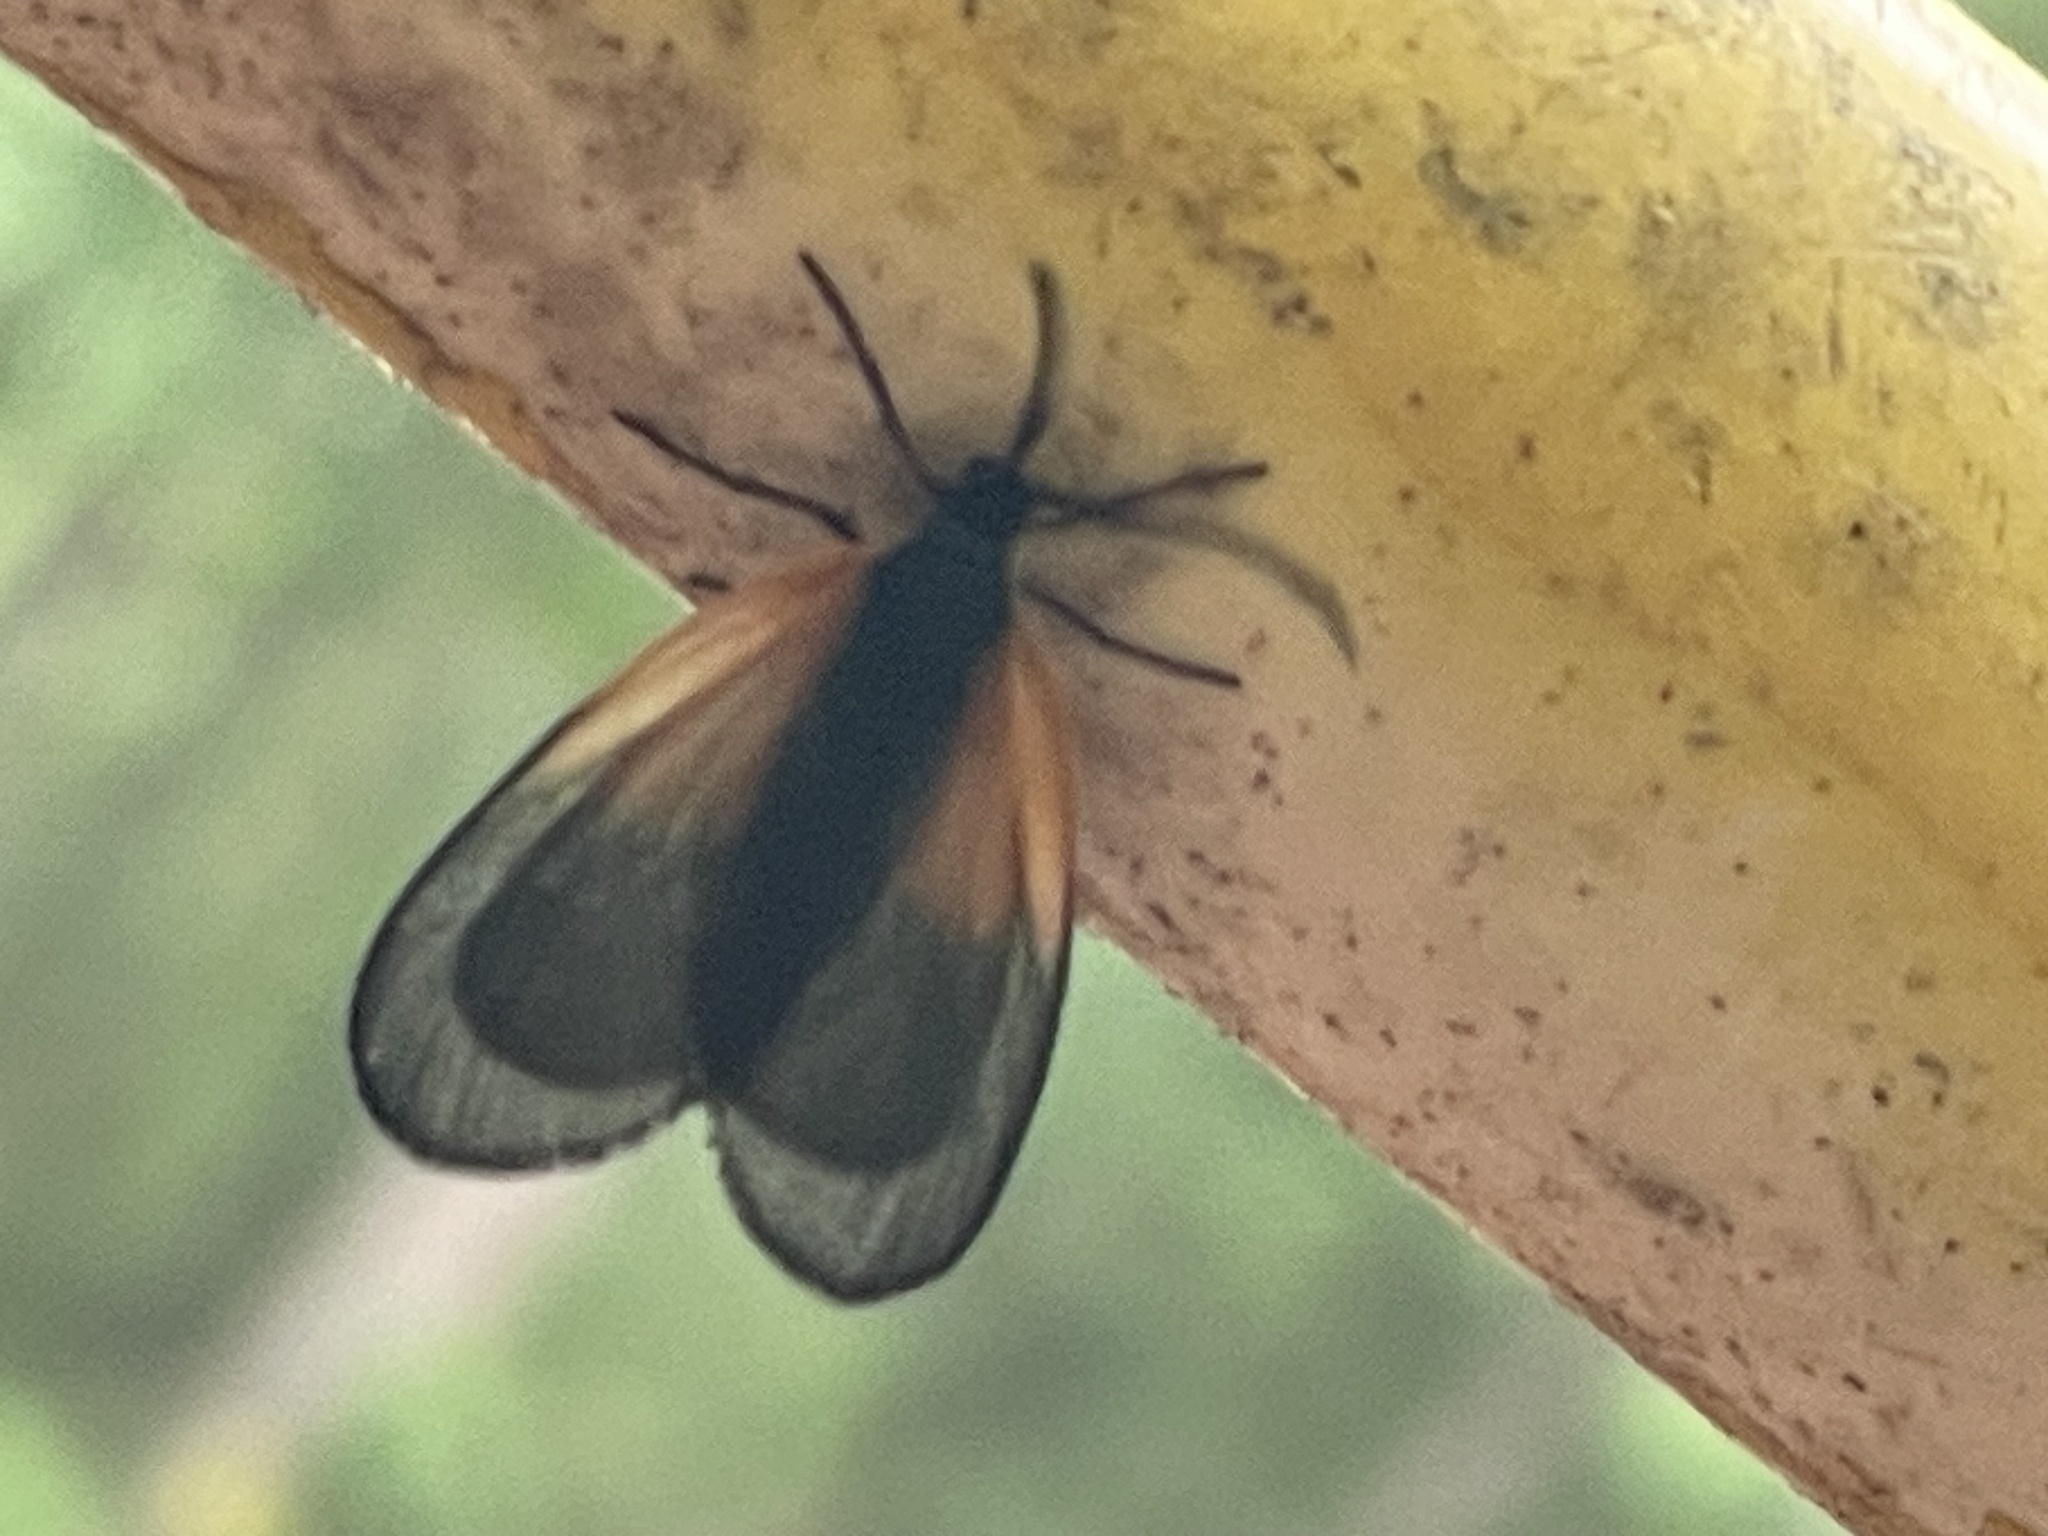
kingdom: Animalia
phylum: Arthropoda
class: Insecta
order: Lepidoptera
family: Zygaenidae
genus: Malthaca
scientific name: Malthaca dimidiata
